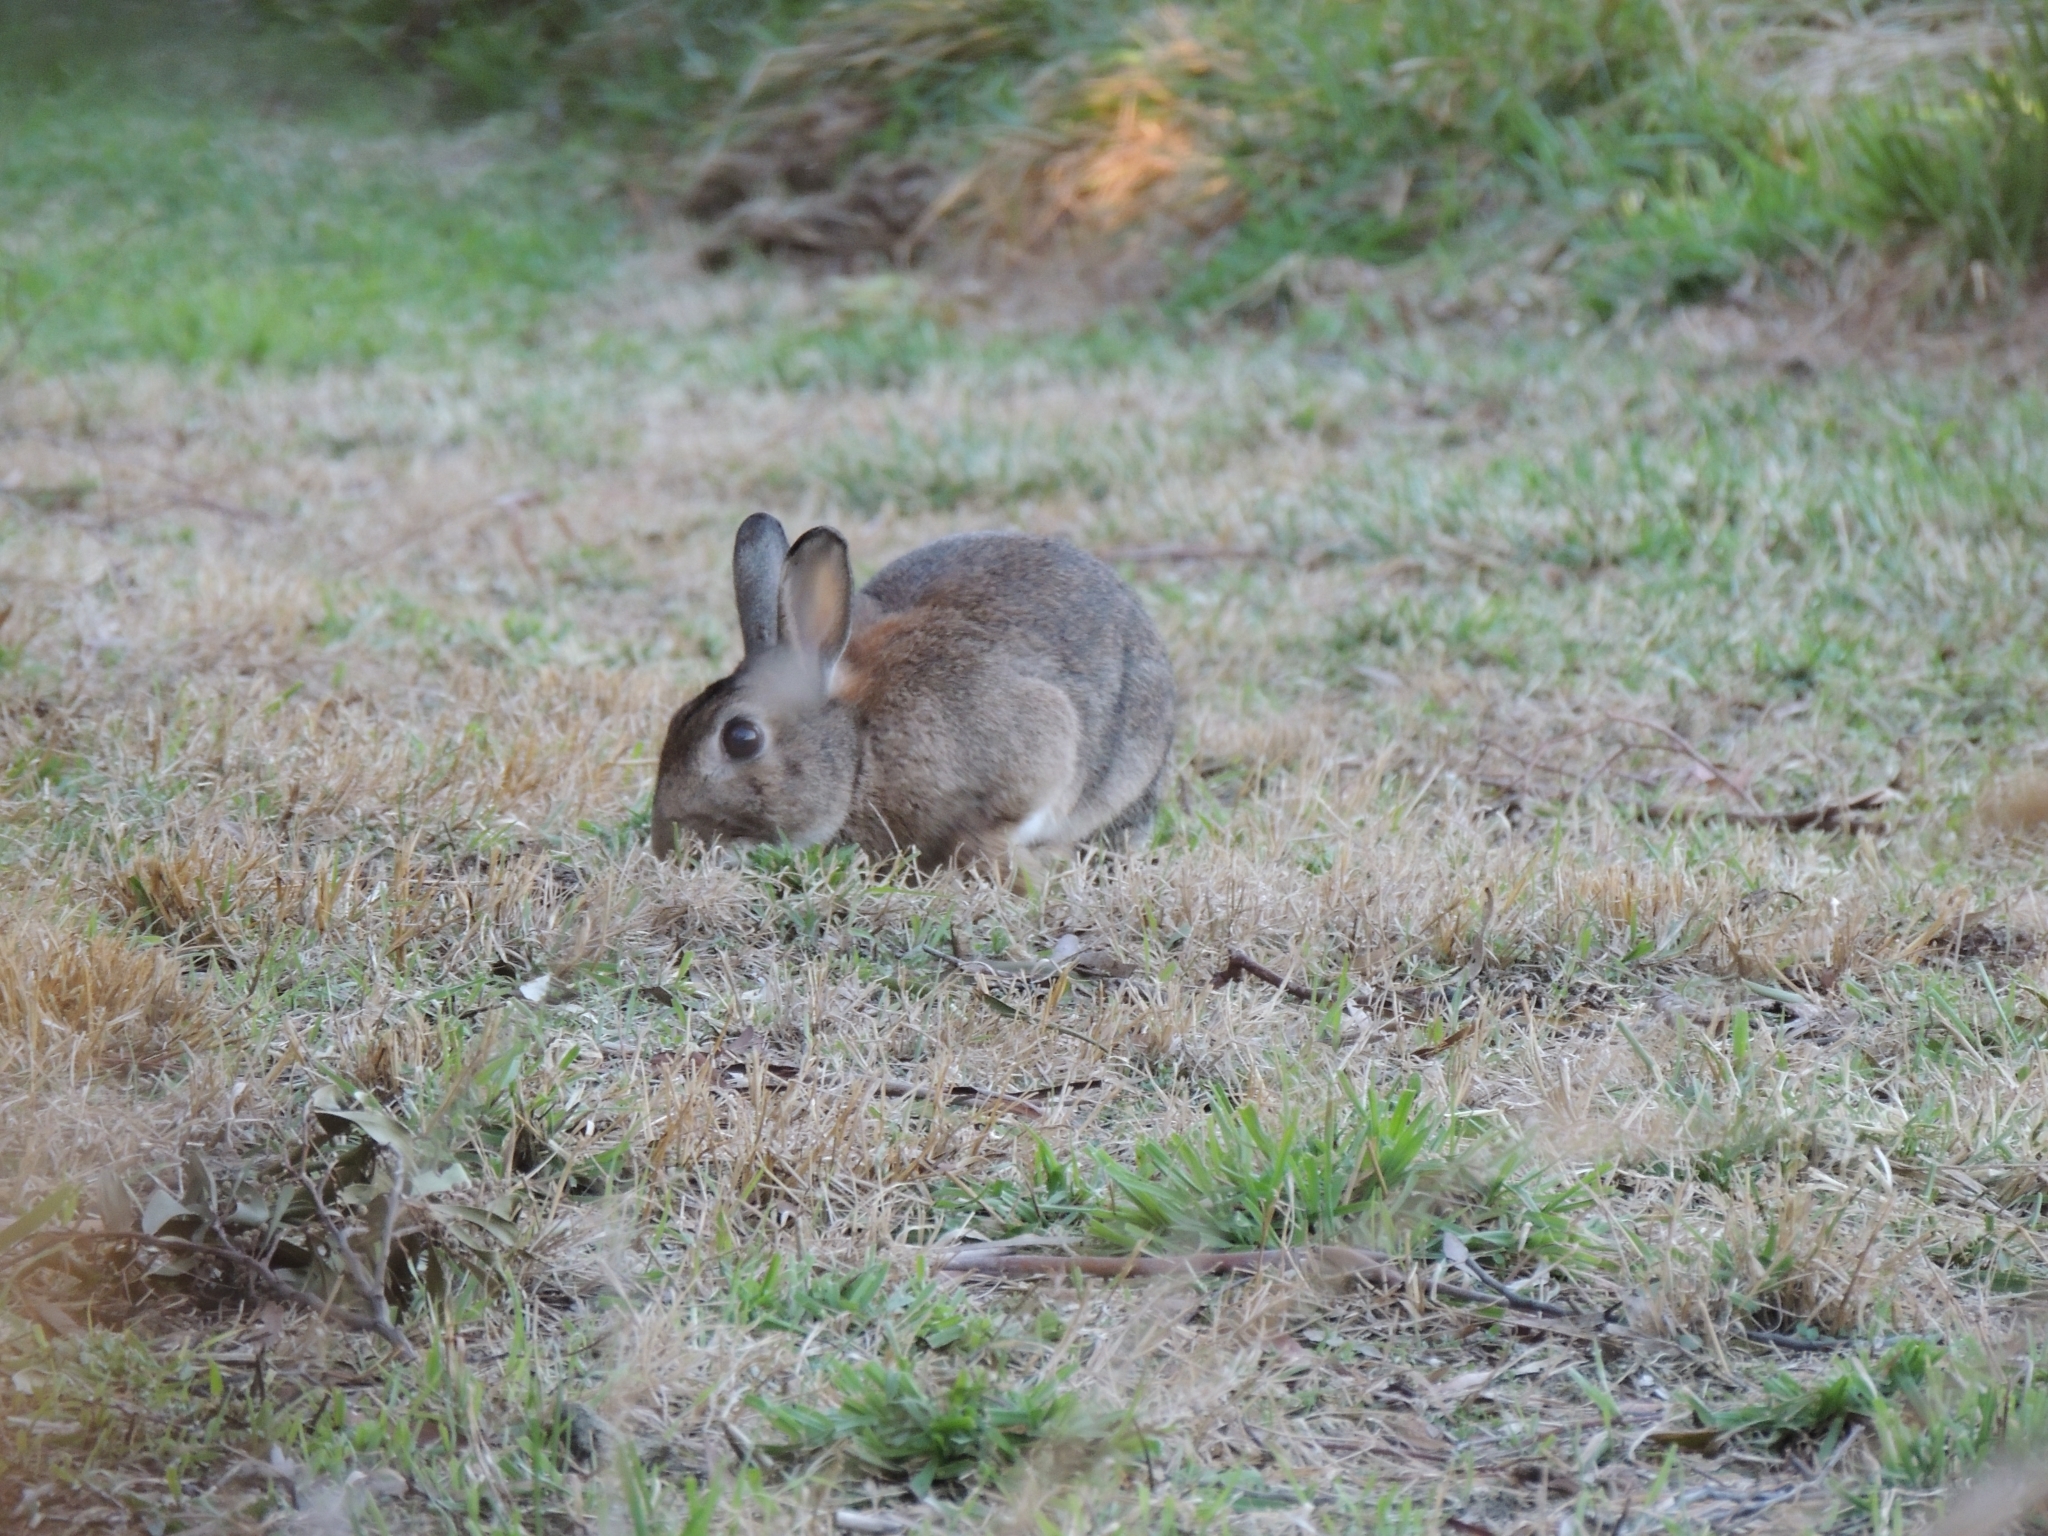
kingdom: Animalia
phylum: Chordata
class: Mammalia
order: Lagomorpha
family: Leporidae
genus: Oryctolagus
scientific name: Oryctolagus cuniculus
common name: European rabbit
